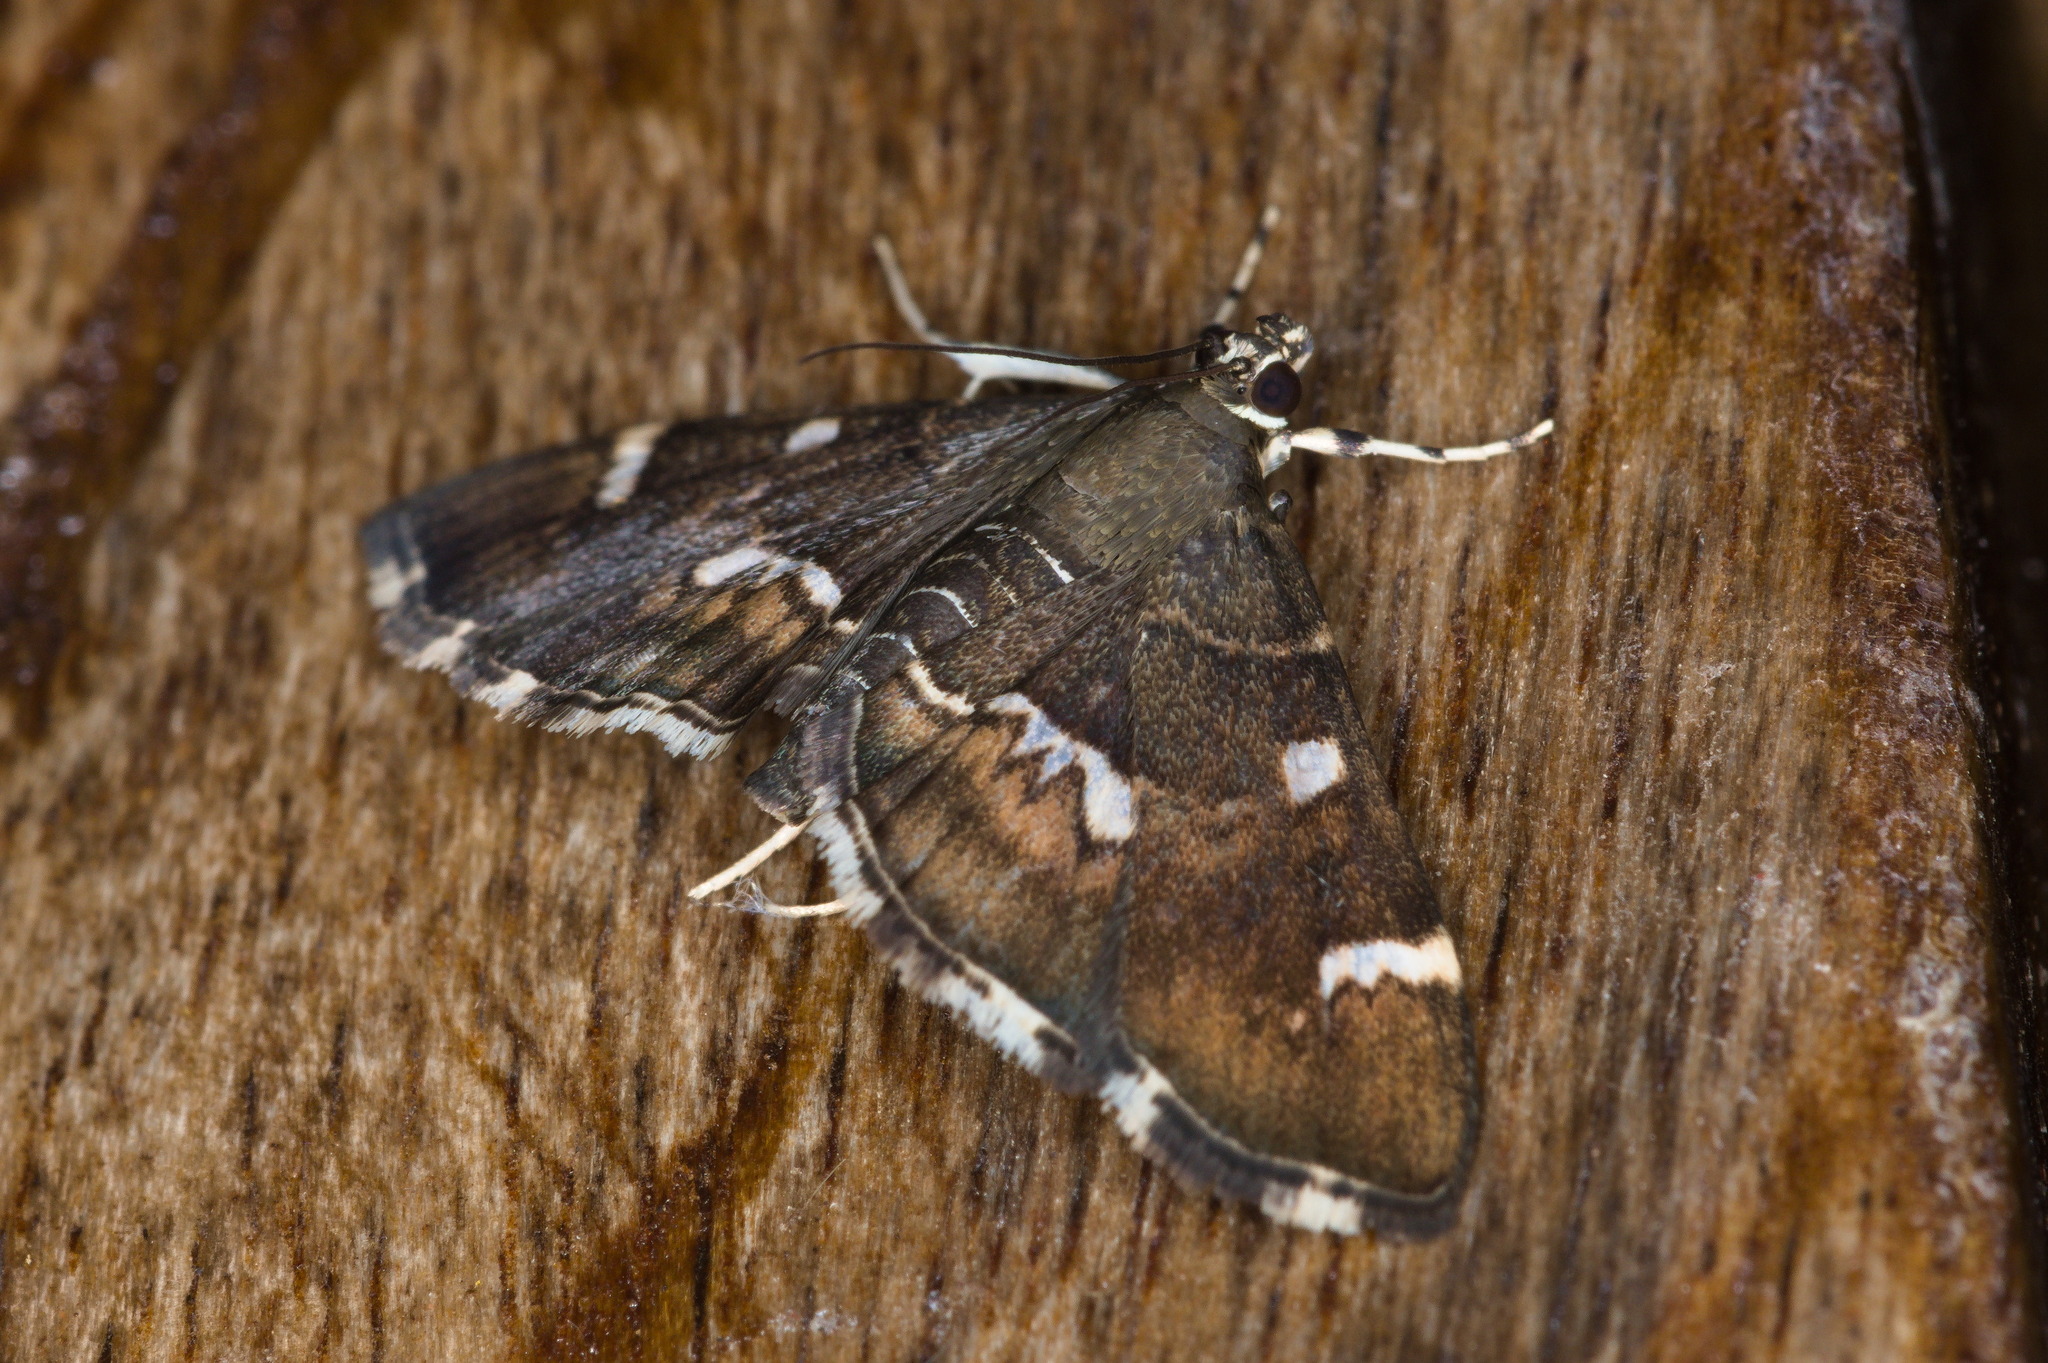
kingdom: Animalia
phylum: Arthropoda
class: Insecta
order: Lepidoptera
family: Crambidae
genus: Hymenia
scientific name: Hymenia perspectalis
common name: Spotted beet webworm
